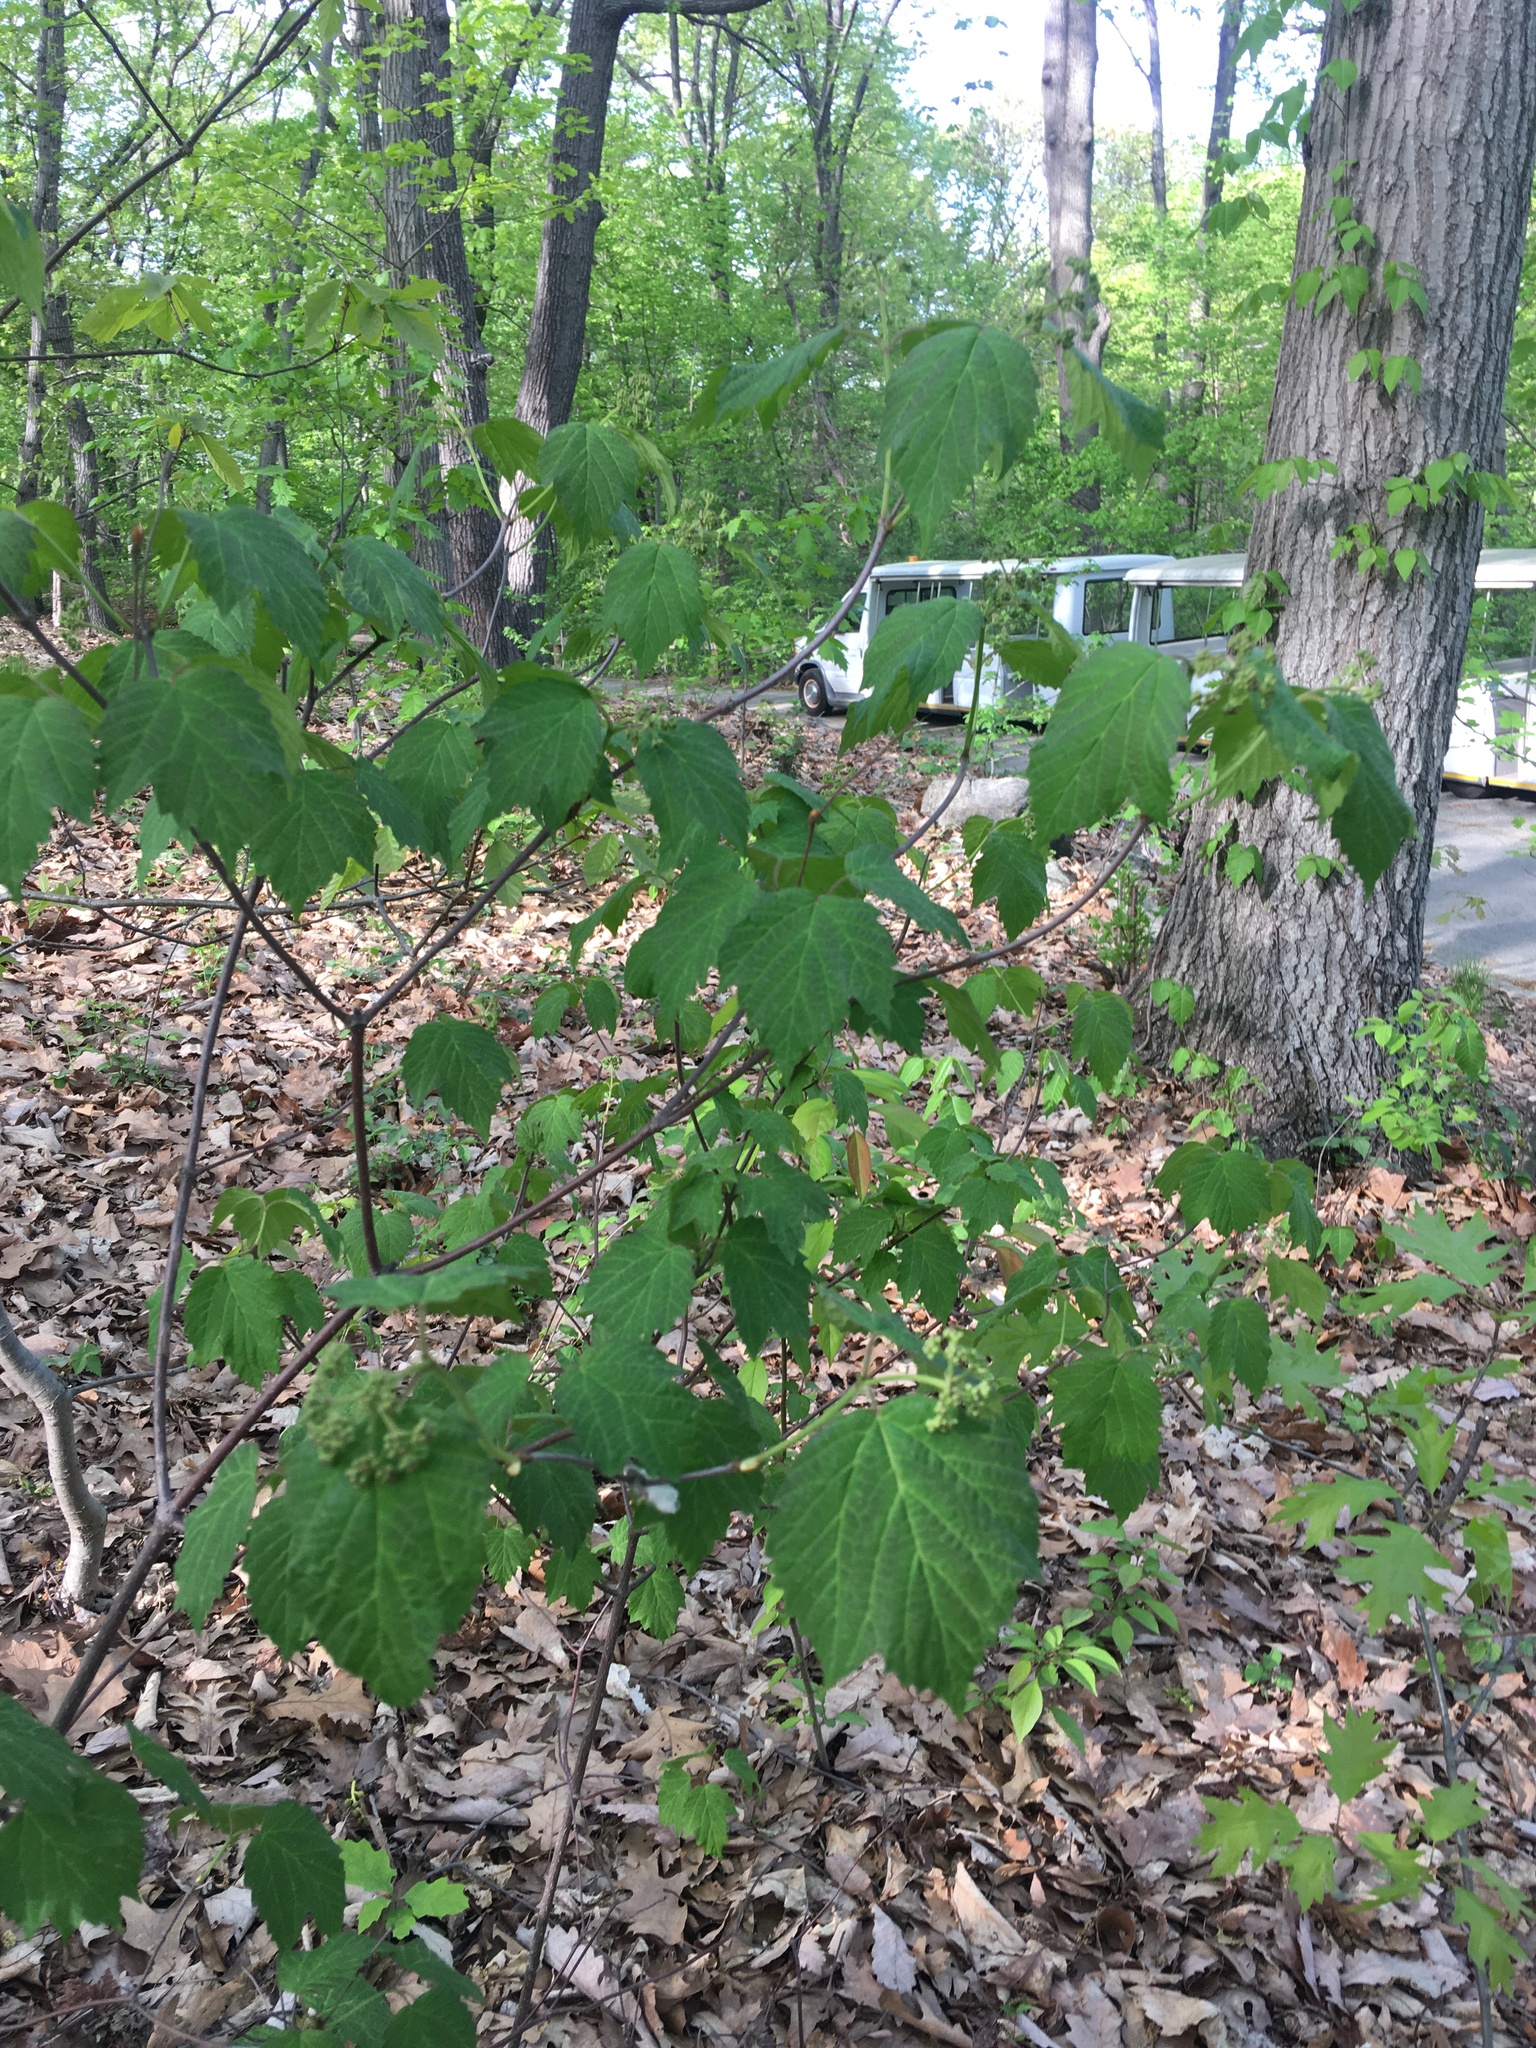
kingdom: Plantae
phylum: Tracheophyta
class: Magnoliopsida
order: Dipsacales
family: Viburnaceae
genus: Viburnum
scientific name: Viburnum acerifolium
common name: Dockmackie
